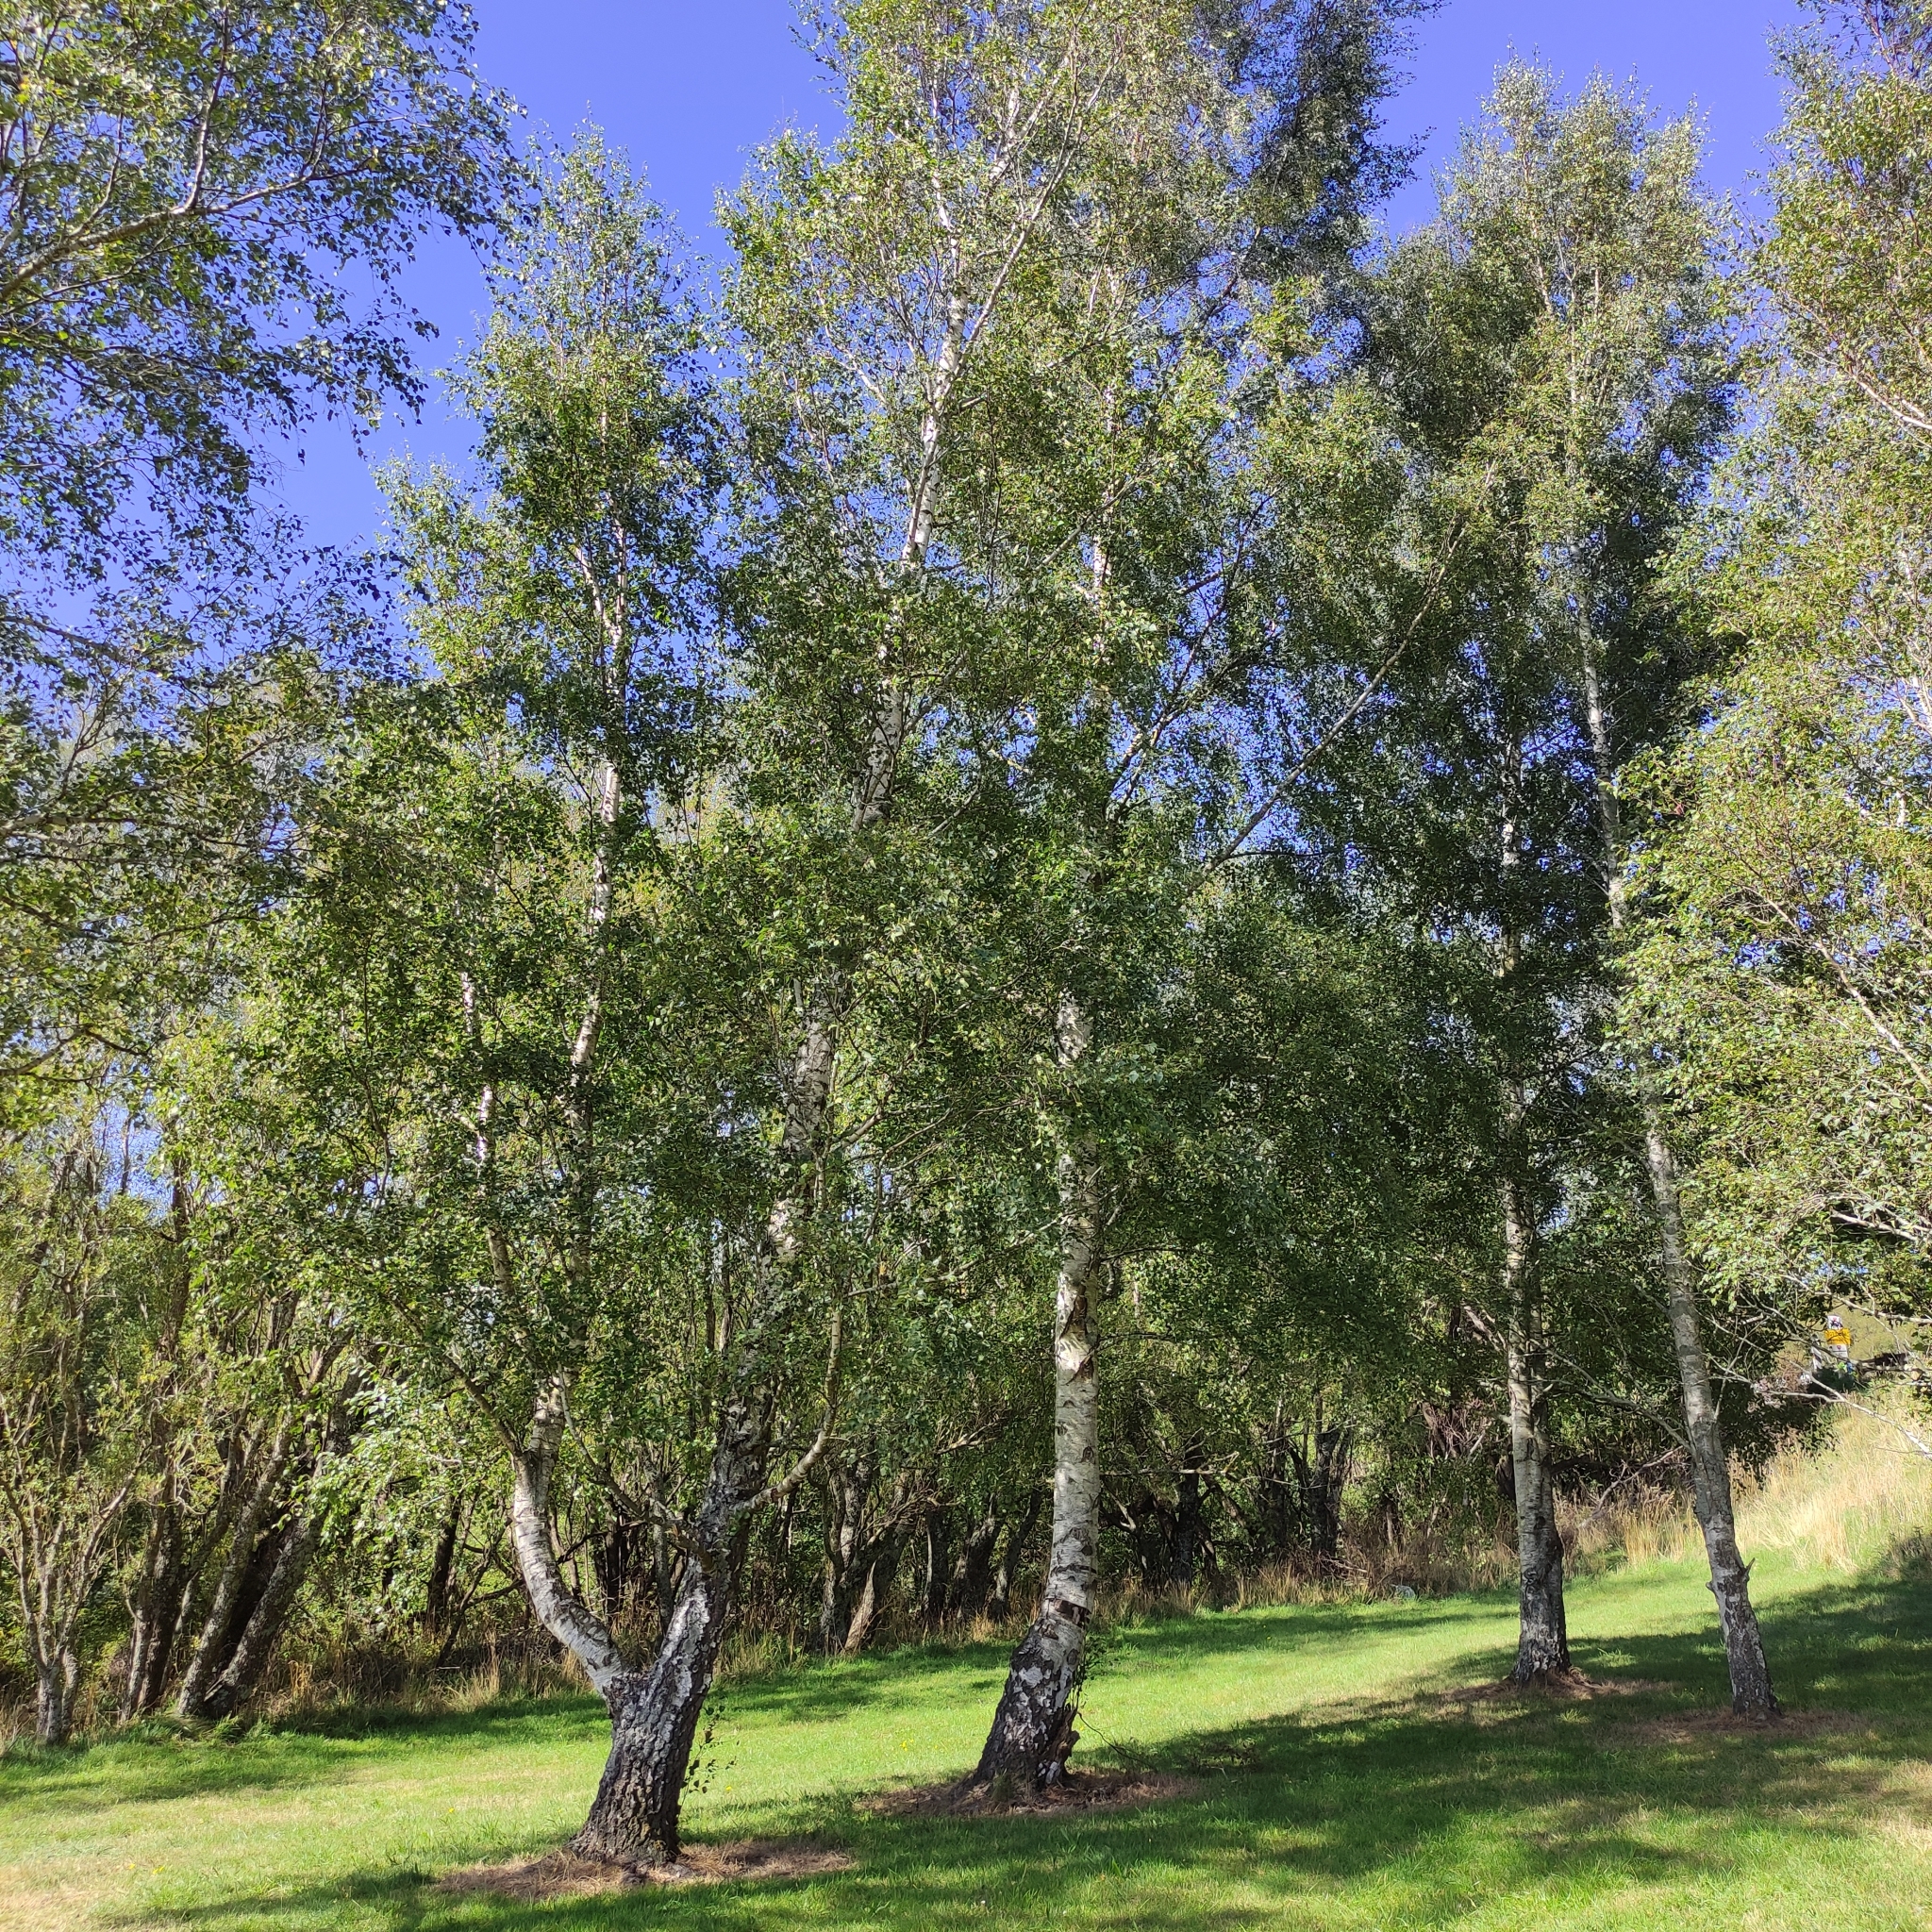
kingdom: Plantae
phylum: Tracheophyta
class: Magnoliopsida
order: Fagales
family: Betulaceae
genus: Betula
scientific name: Betula pendula
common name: Silver birch
